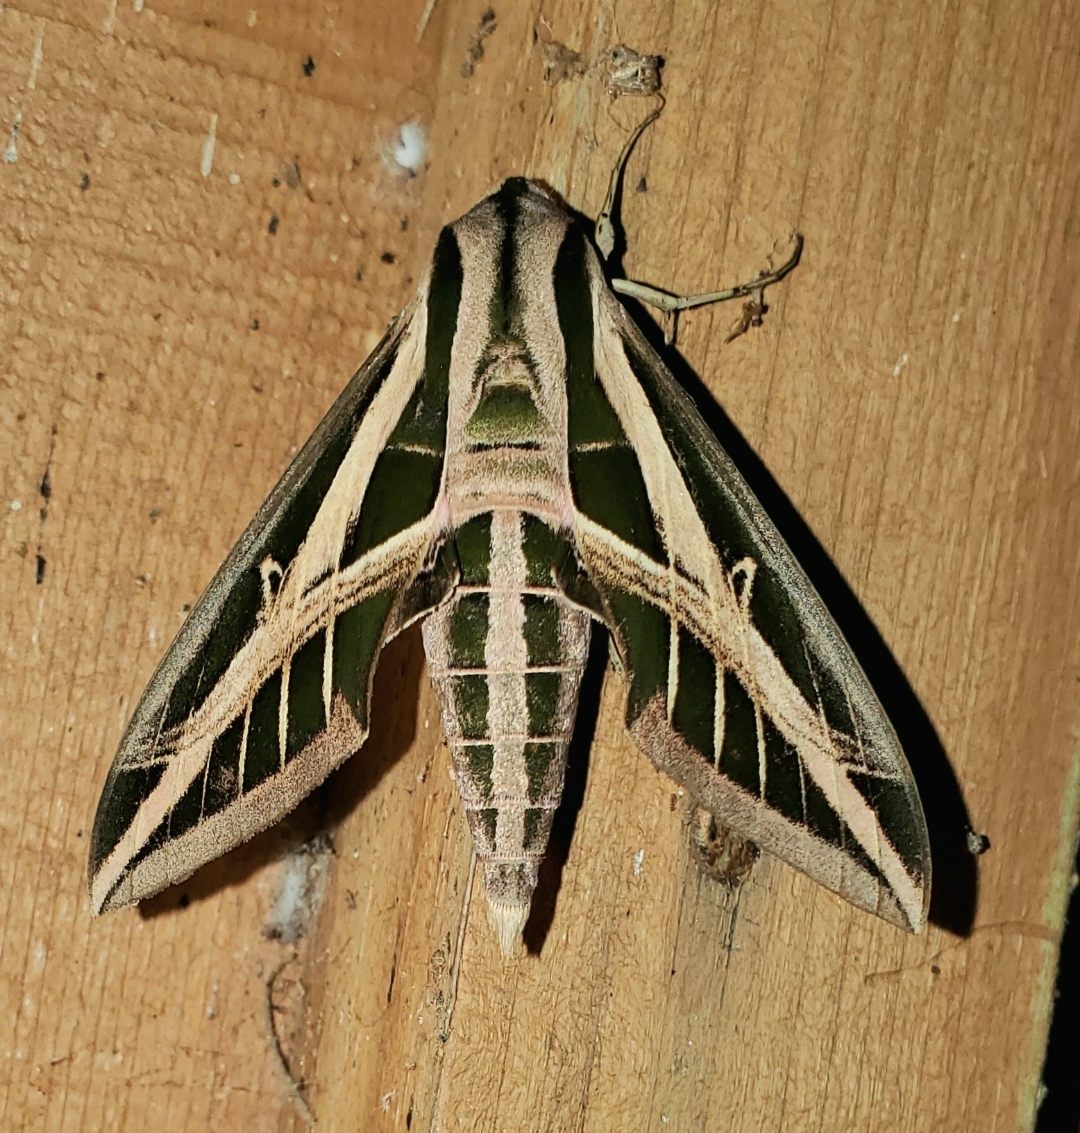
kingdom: Animalia
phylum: Arthropoda
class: Insecta
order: Lepidoptera
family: Sphingidae
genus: Eumorpha
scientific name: Eumorpha fasciatus
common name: Banded sphinx
